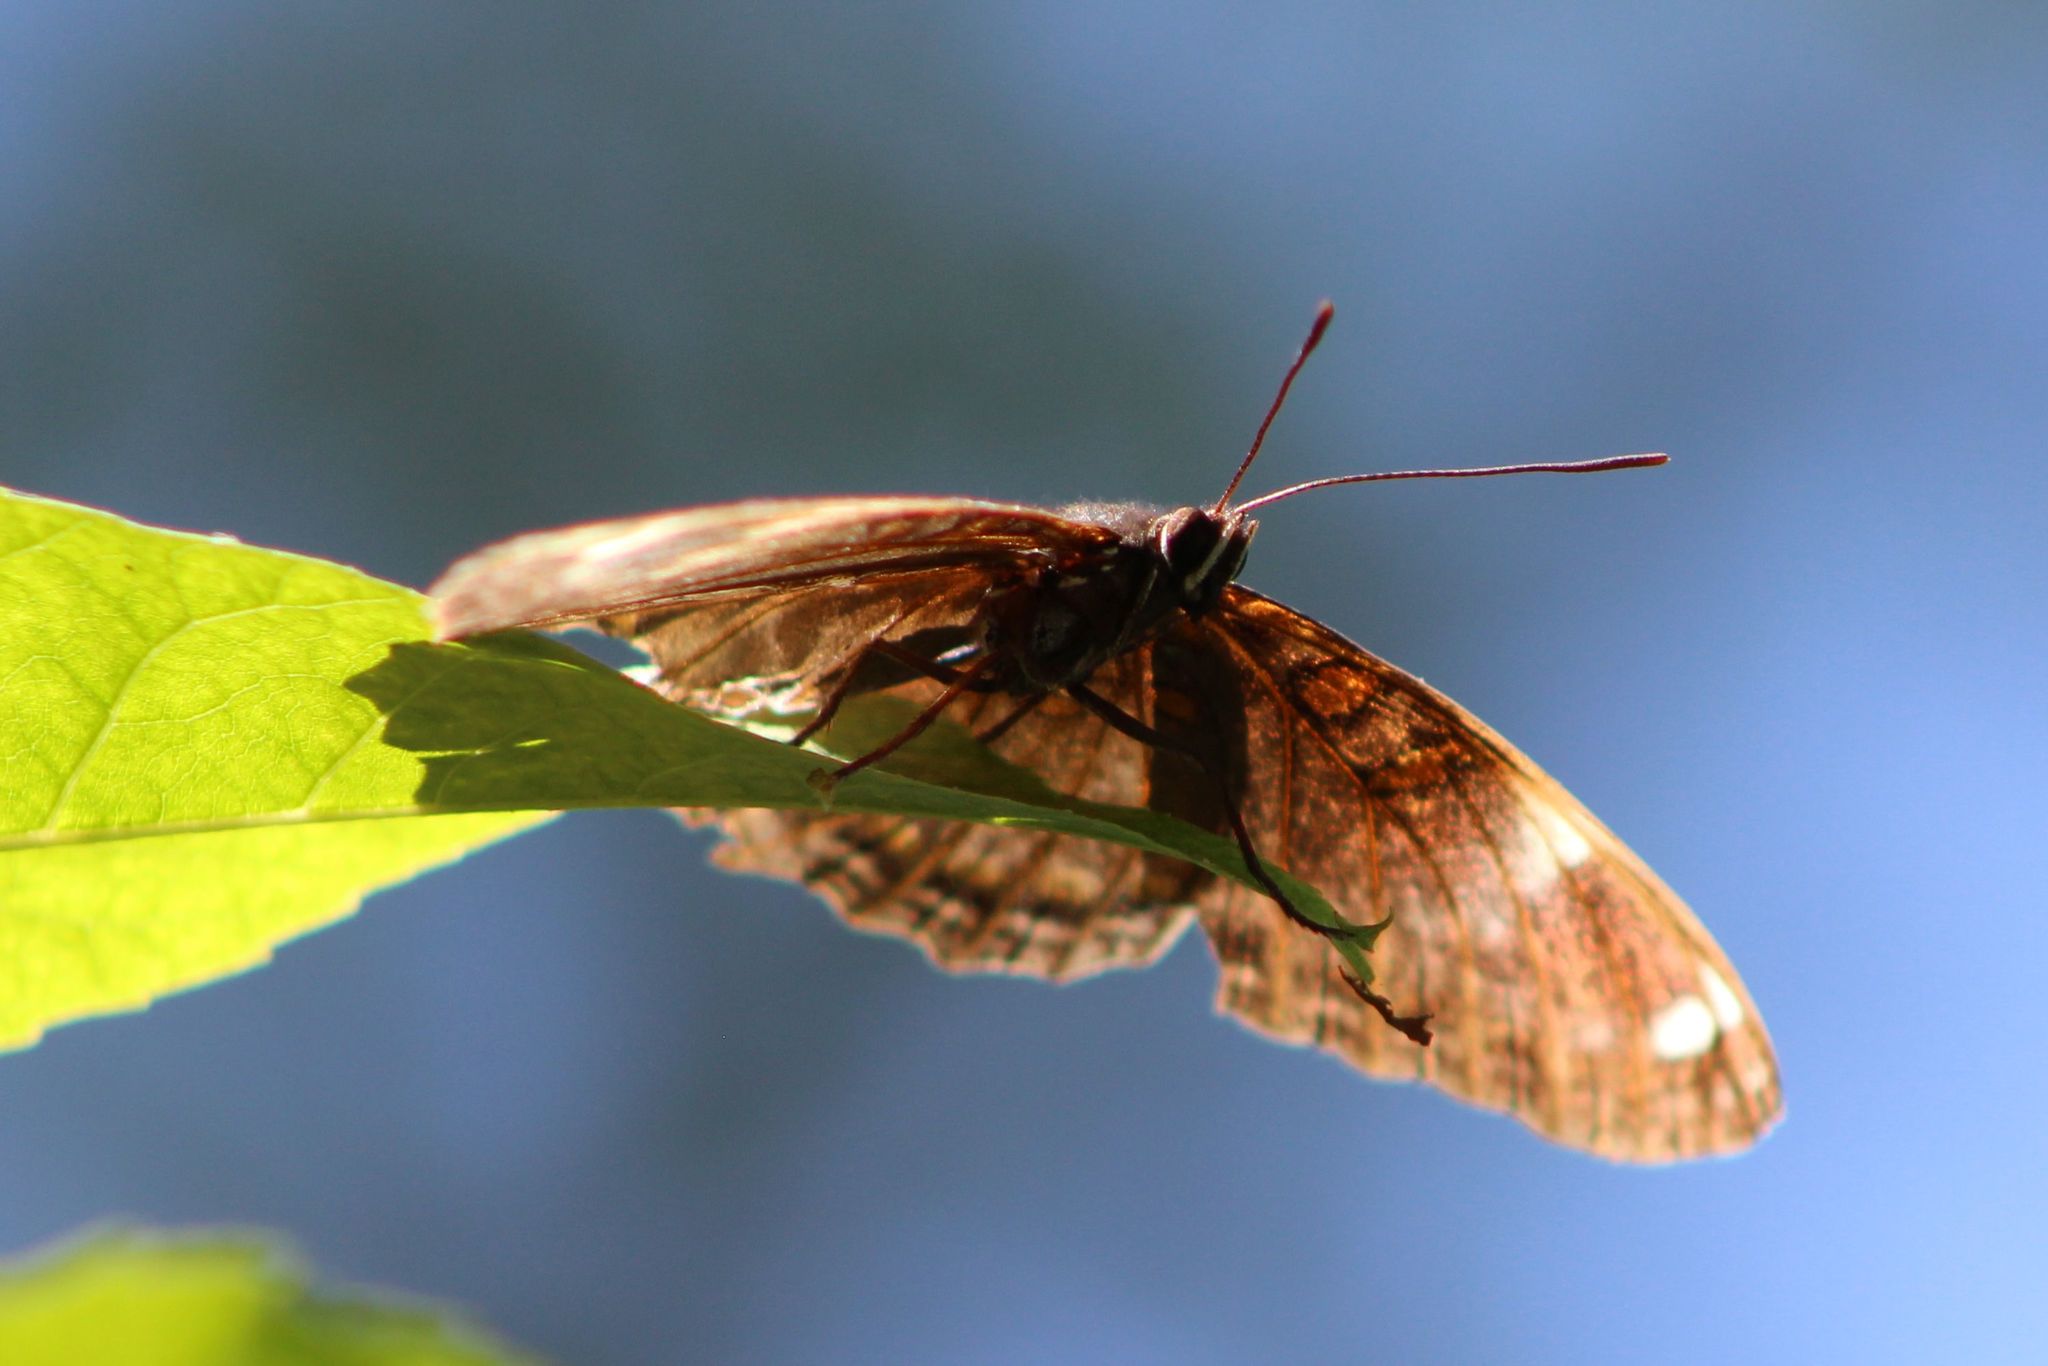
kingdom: Animalia
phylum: Arthropoda
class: Insecta
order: Lepidoptera
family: Nymphalidae
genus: Limenitis
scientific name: Limenitis astyanax
